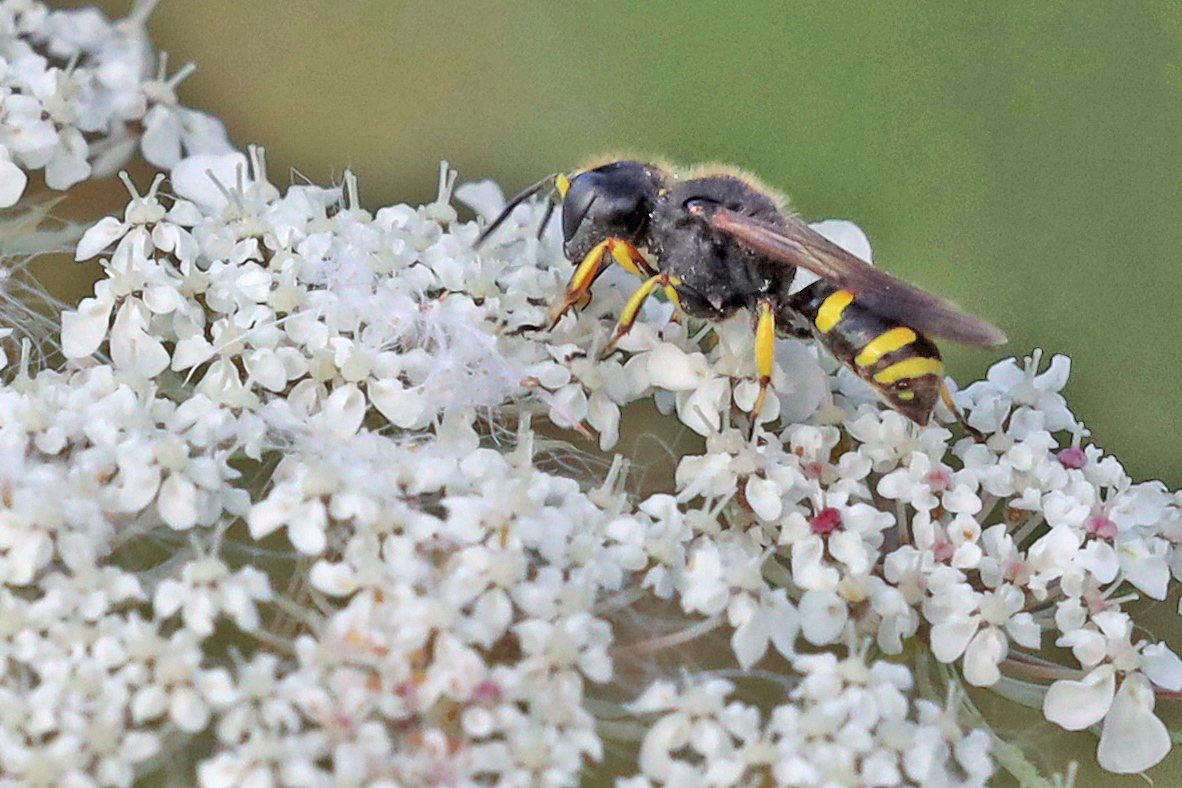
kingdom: Animalia
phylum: Arthropoda
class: Insecta
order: Hymenoptera
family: Crabronidae
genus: Ectemnius
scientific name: Ectemnius continuus
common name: Common ectemnius
